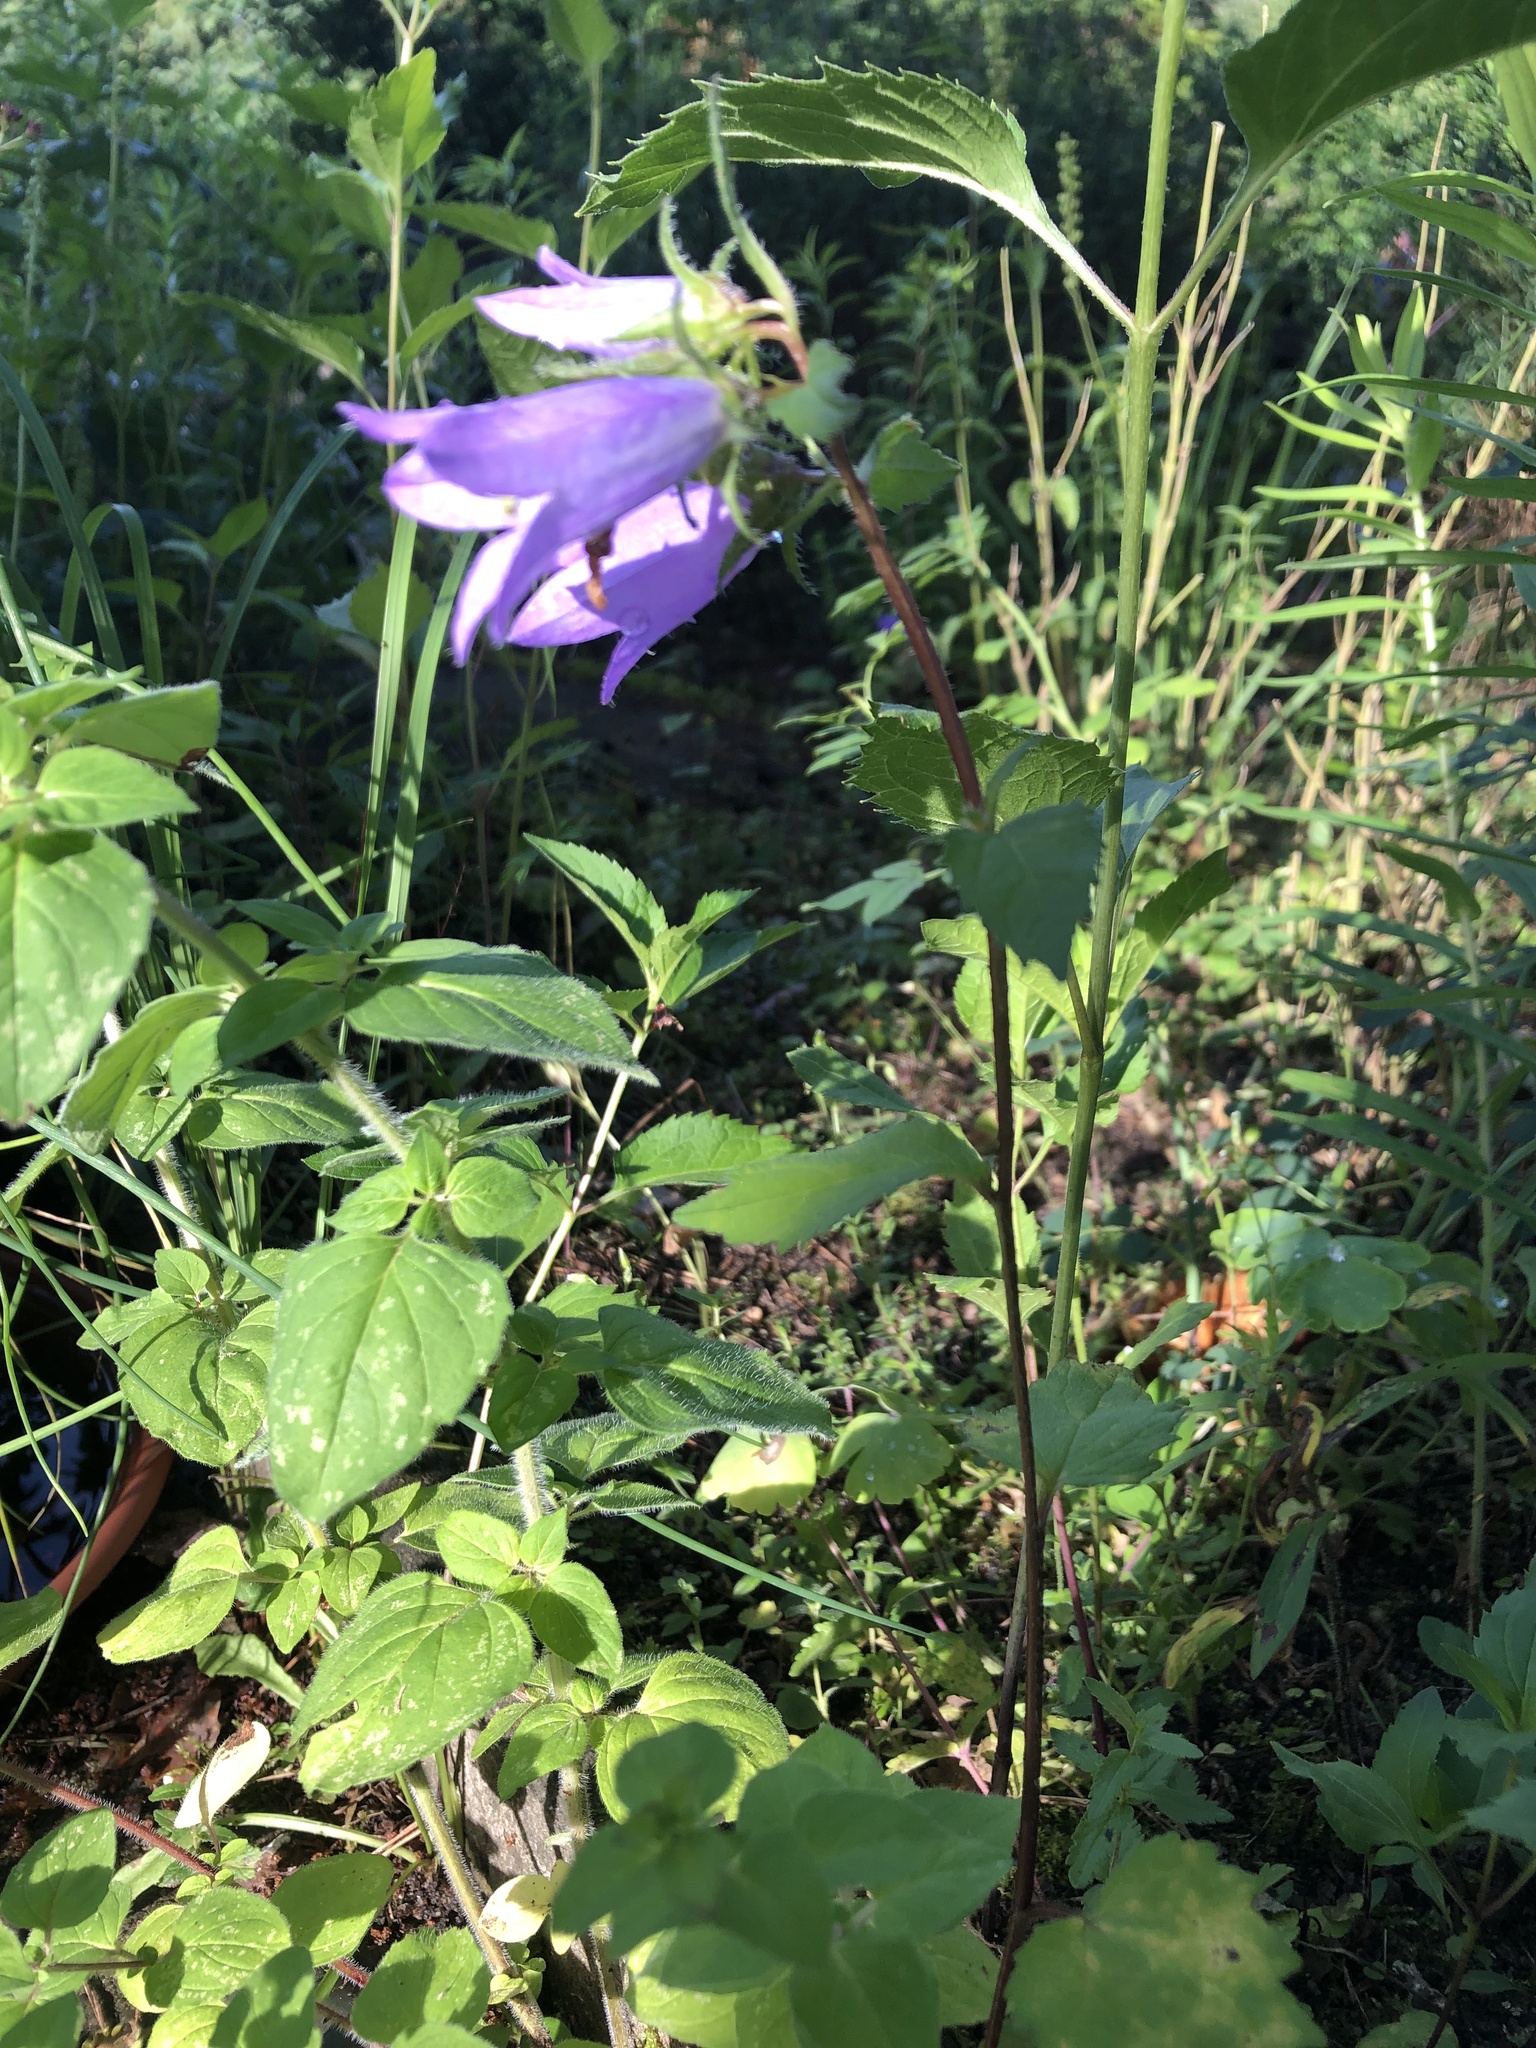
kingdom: Plantae
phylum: Tracheophyta
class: Magnoliopsida
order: Asterales
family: Campanulaceae
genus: Campanula
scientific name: Campanula trachelium
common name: Nettle-leaved bellflower
